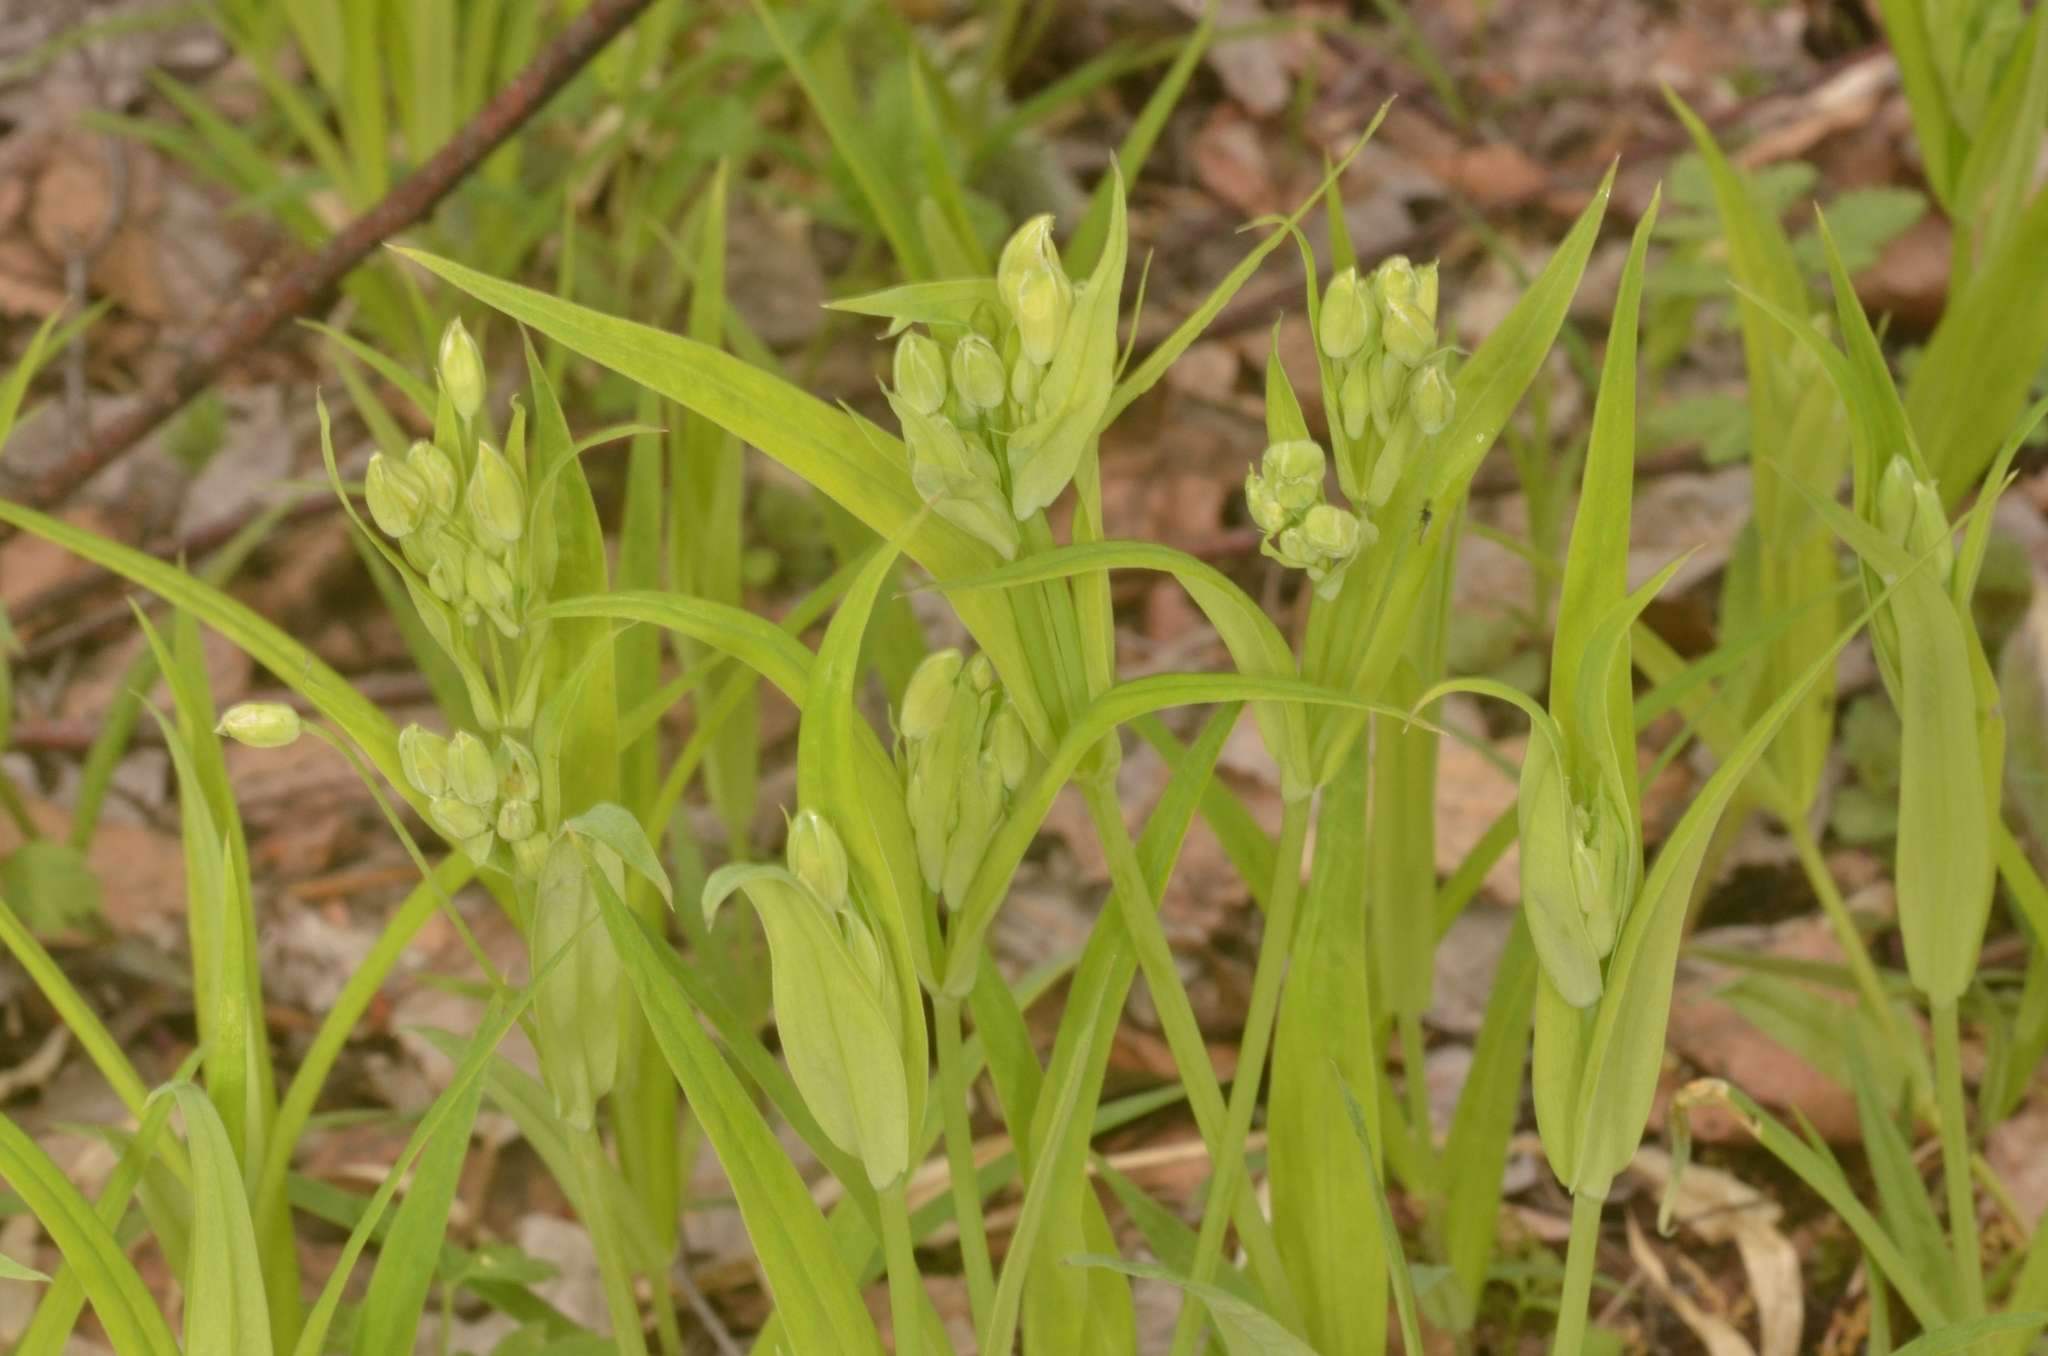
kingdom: Plantae
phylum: Tracheophyta
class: Magnoliopsida
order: Caryophyllales
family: Caryophyllaceae
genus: Rabelera
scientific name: Rabelera holostea
